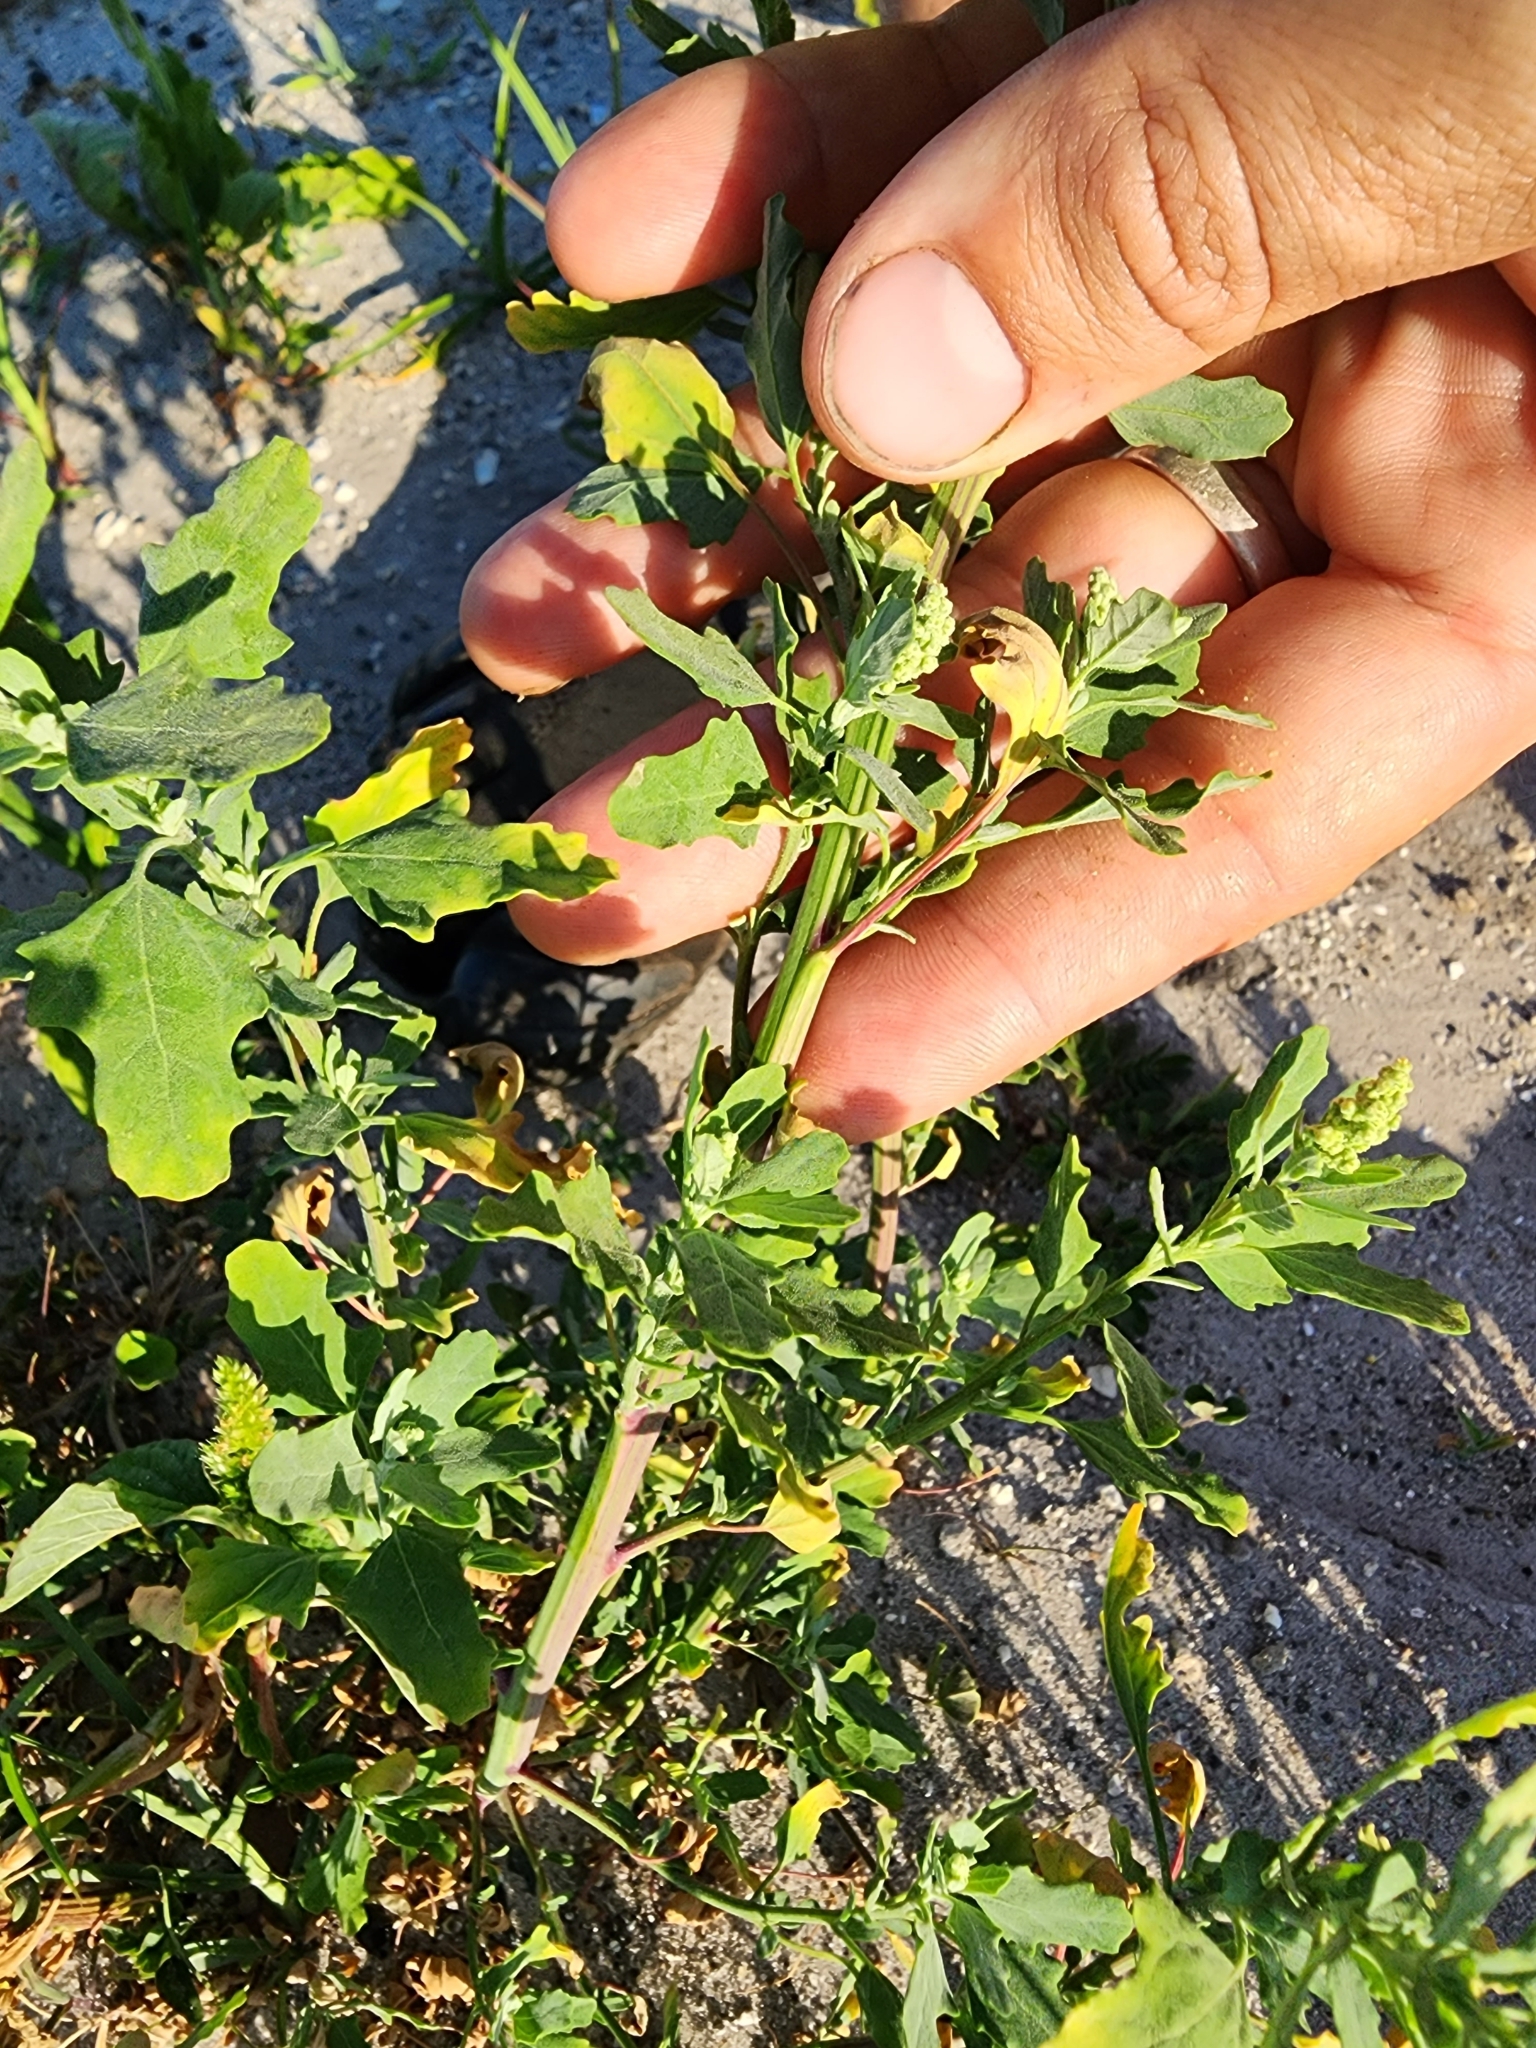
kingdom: Plantae
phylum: Tracheophyta
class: Magnoliopsida
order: Caryophyllales
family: Amaranthaceae
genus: Chenopodium
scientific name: Chenopodium ficifolium
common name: Fig-leaved goosefoot
